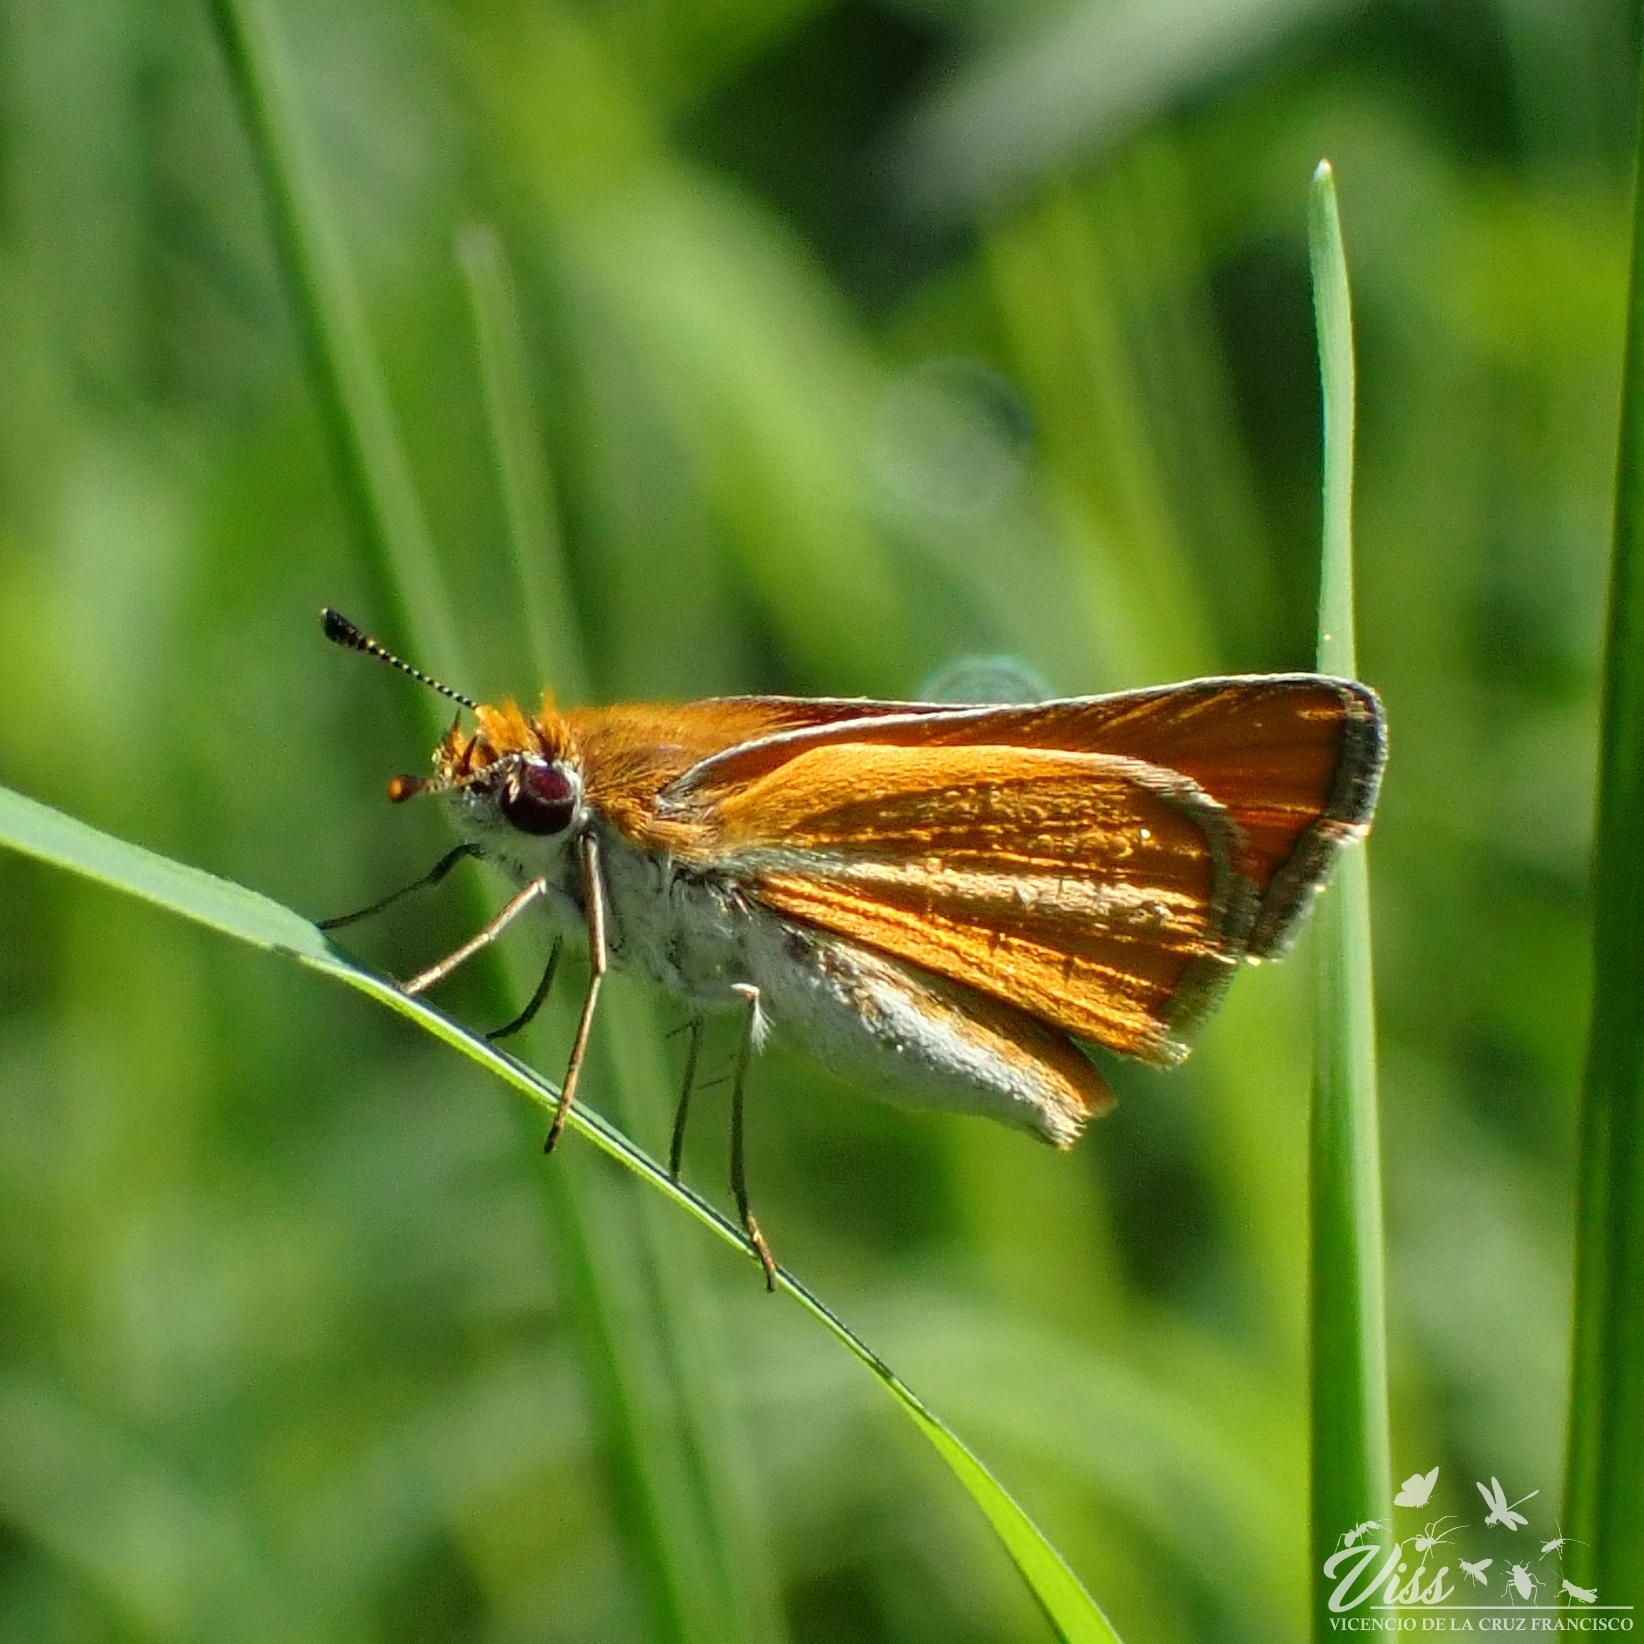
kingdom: Animalia
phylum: Arthropoda
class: Insecta
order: Lepidoptera
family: Hesperiidae
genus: Copaeodes
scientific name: Copaeodes minima
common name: Southern skipperling
